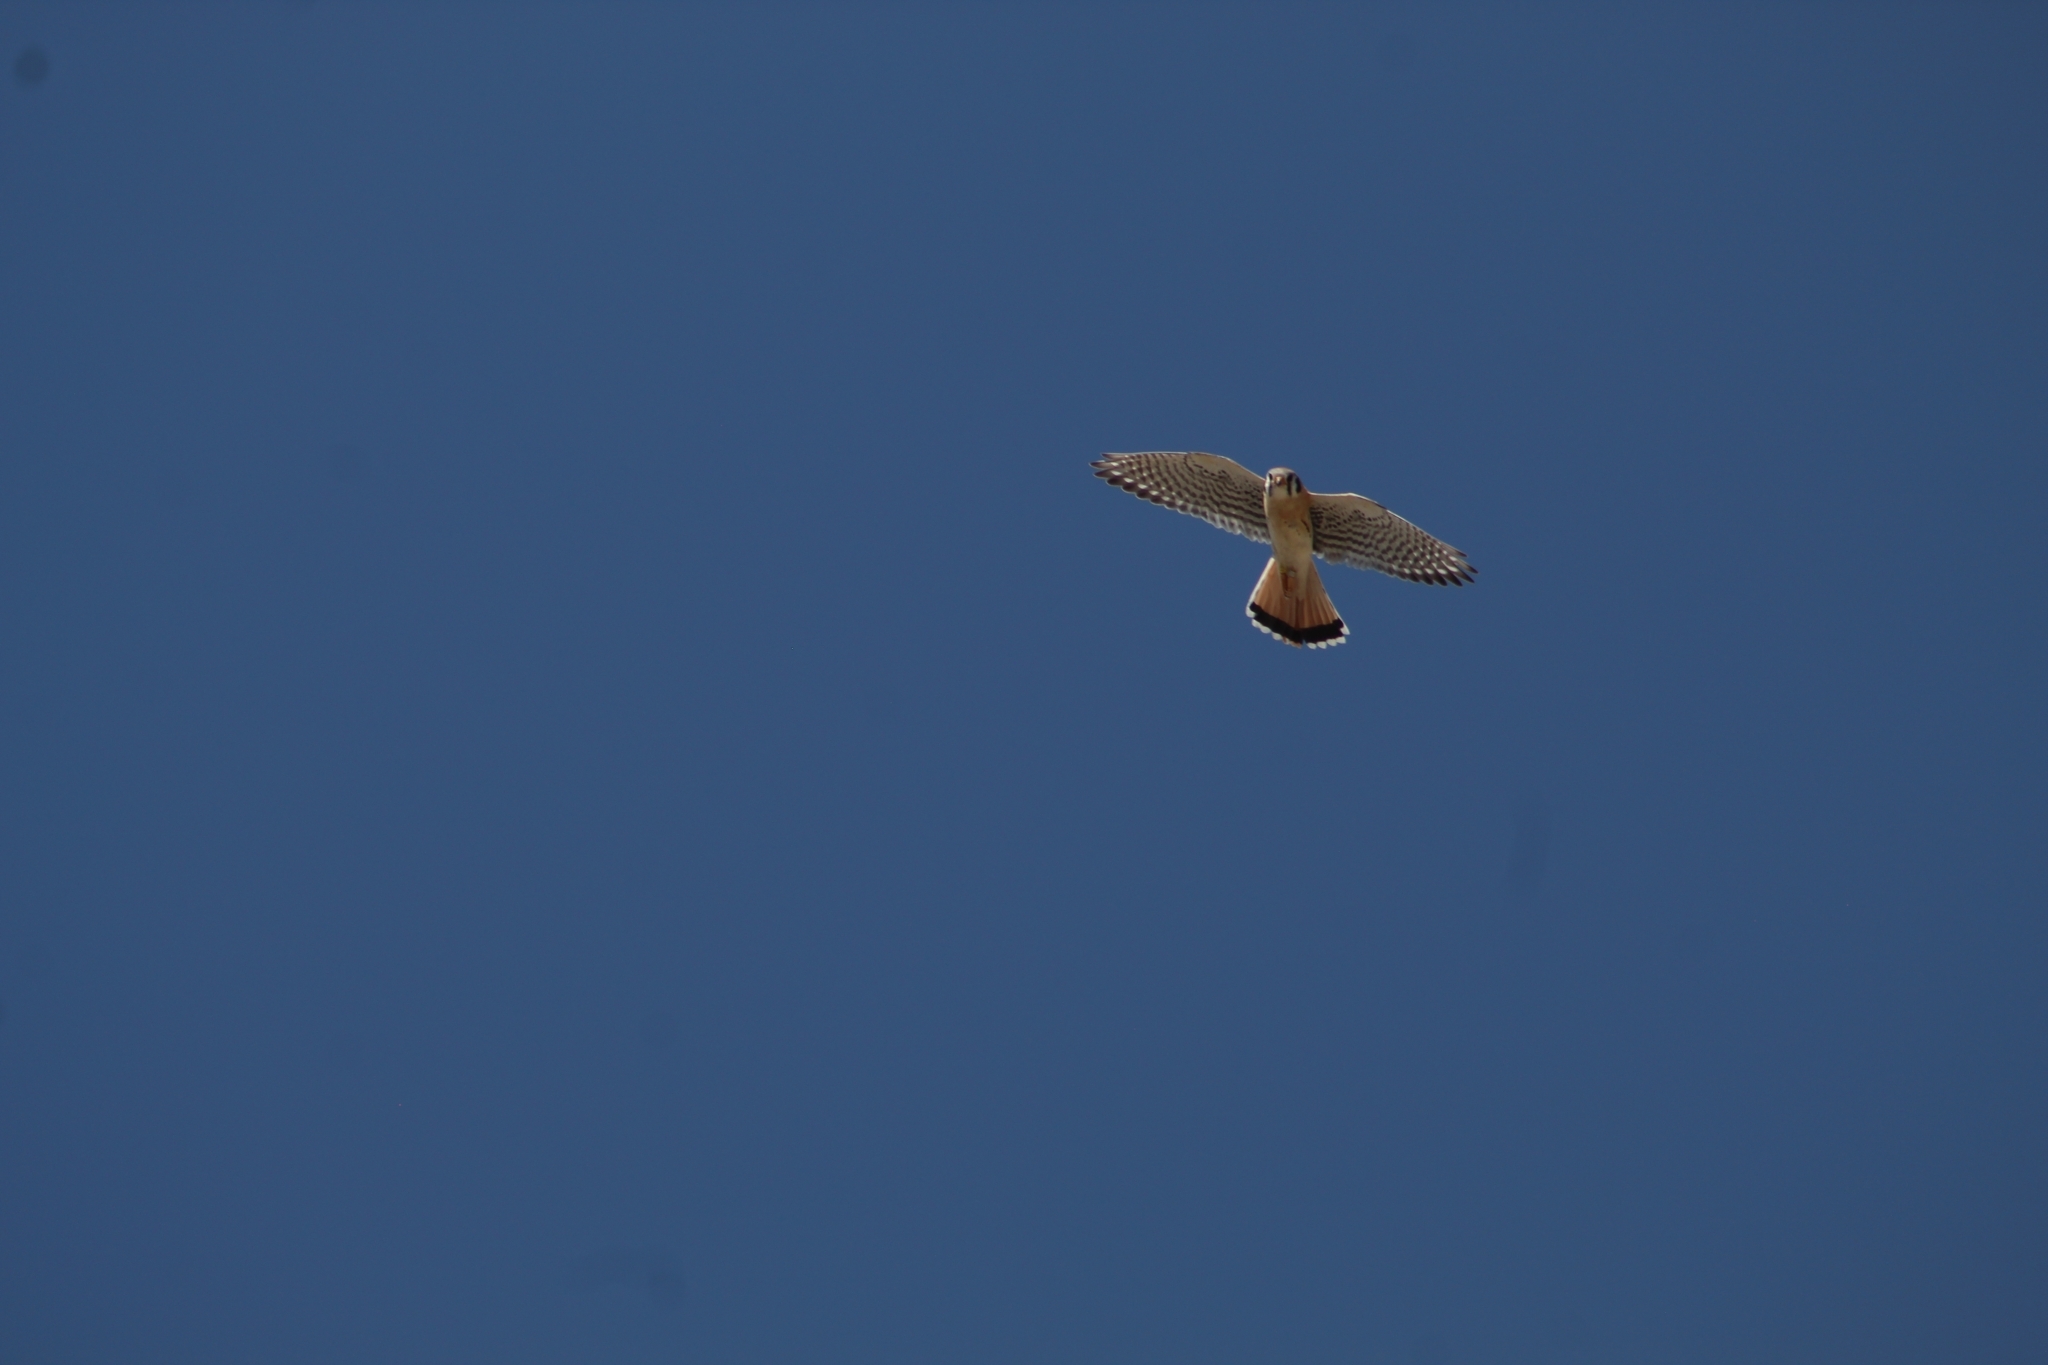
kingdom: Animalia
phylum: Chordata
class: Aves
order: Falconiformes
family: Falconidae
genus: Falco
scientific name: Falco sparverius
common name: American kestrel
